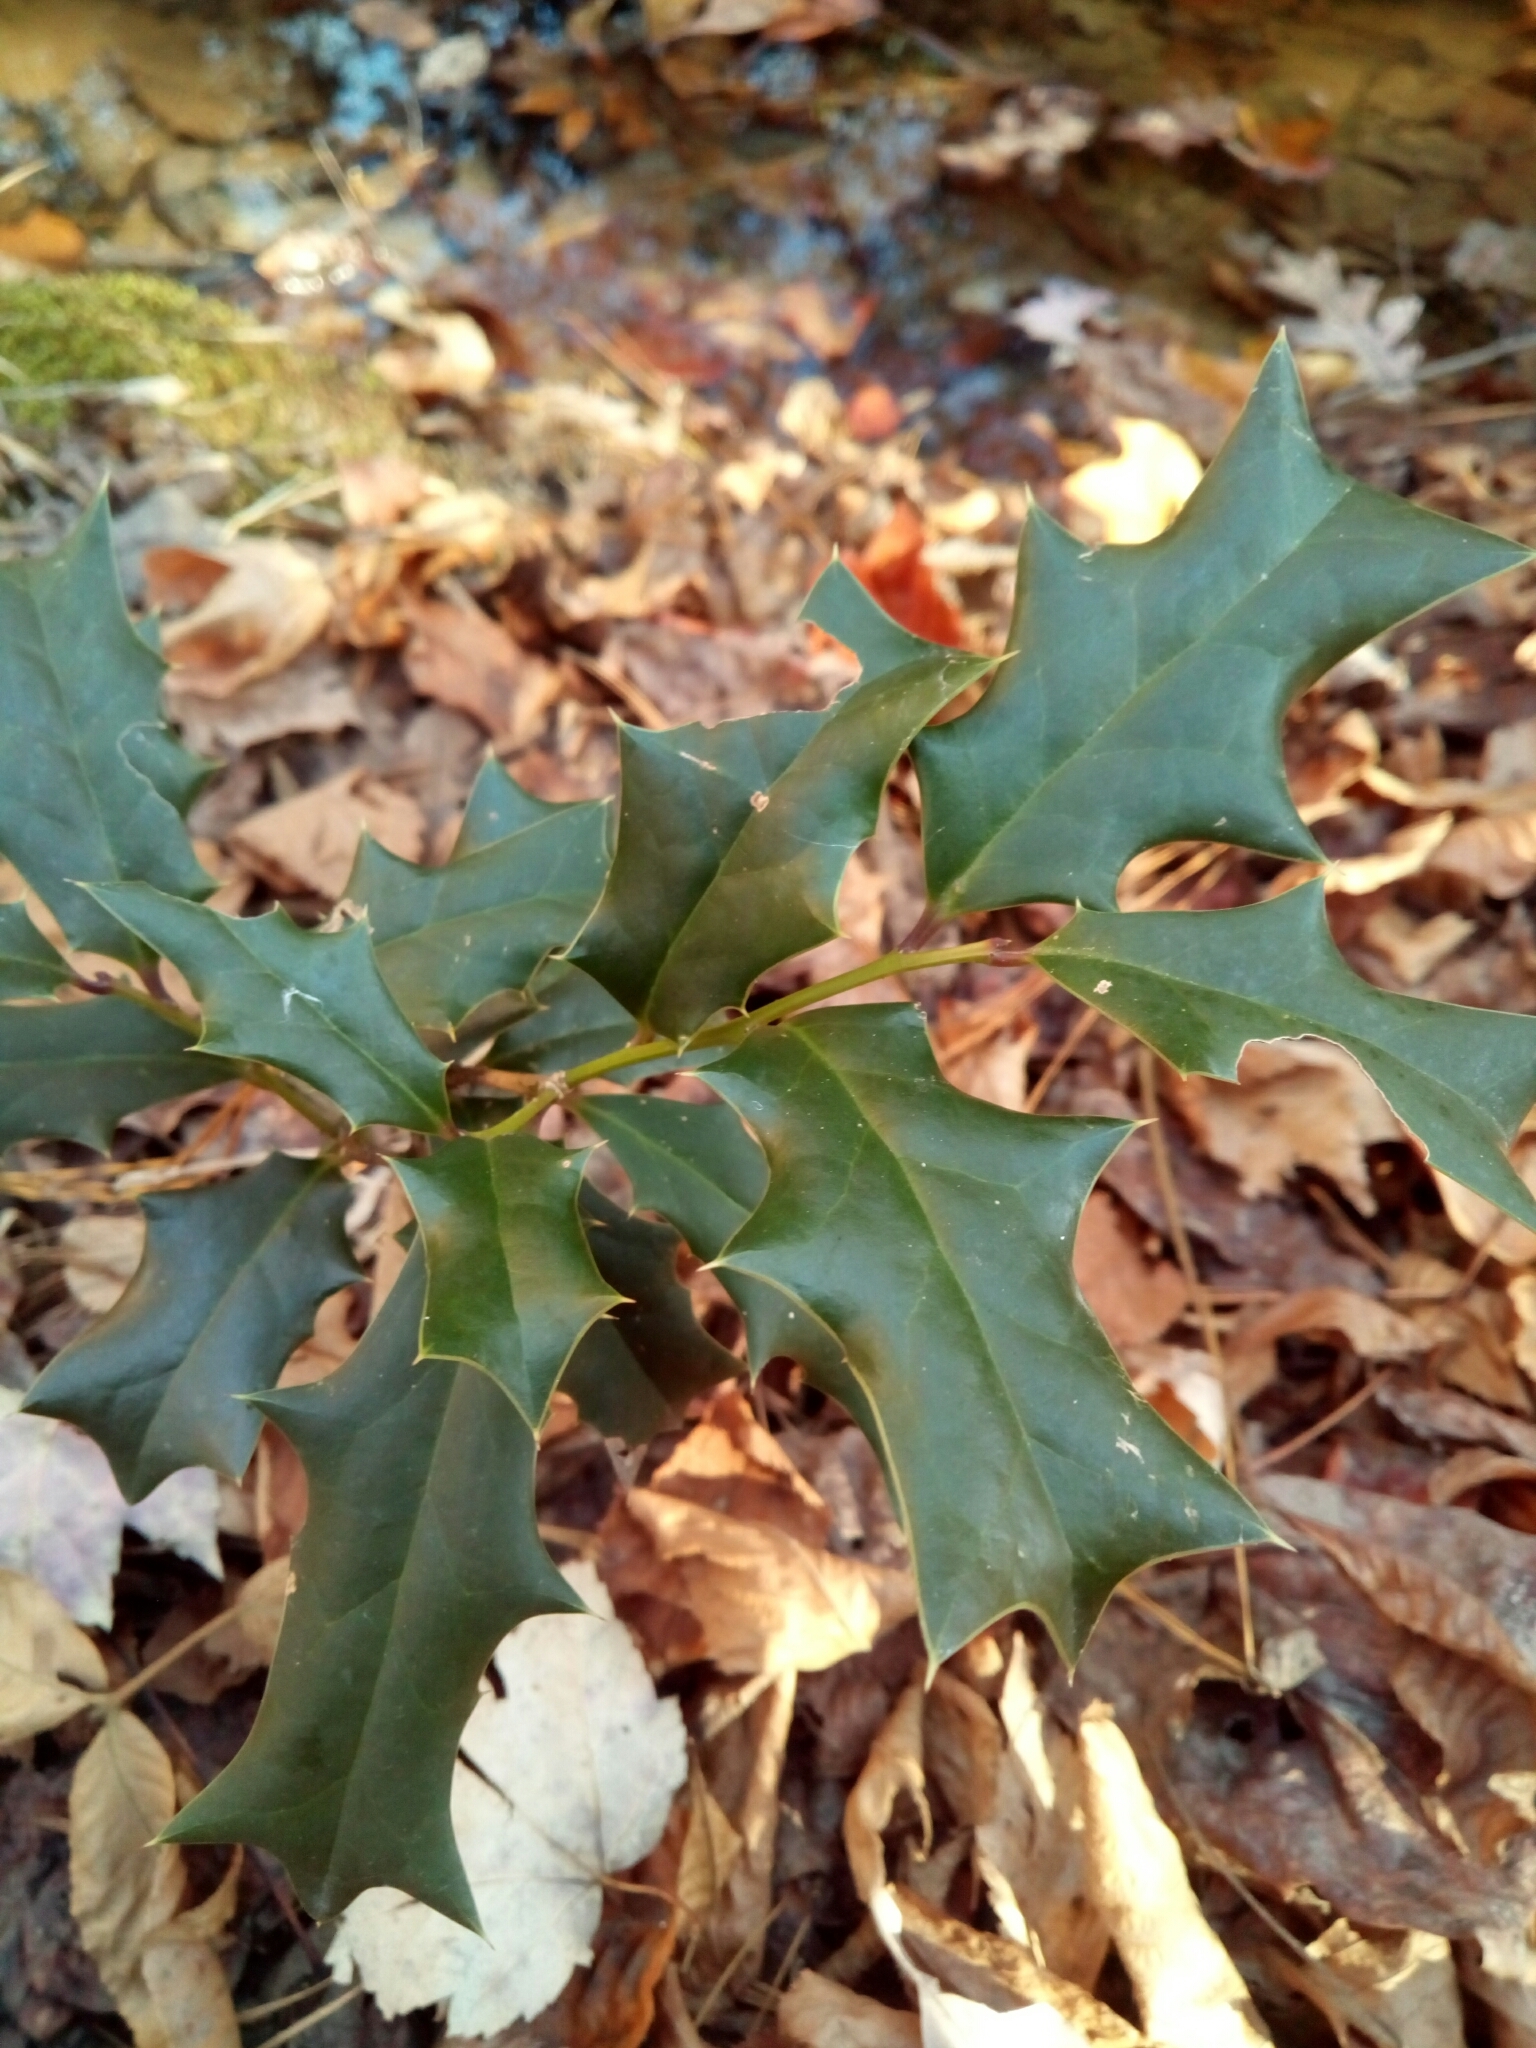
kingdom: Plantae
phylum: Tracheophyta
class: Magnoliopsida
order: Aquifoliales
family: Aquifoliaceae
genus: Ilex
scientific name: Ilex cornuta
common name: Chinese holly
